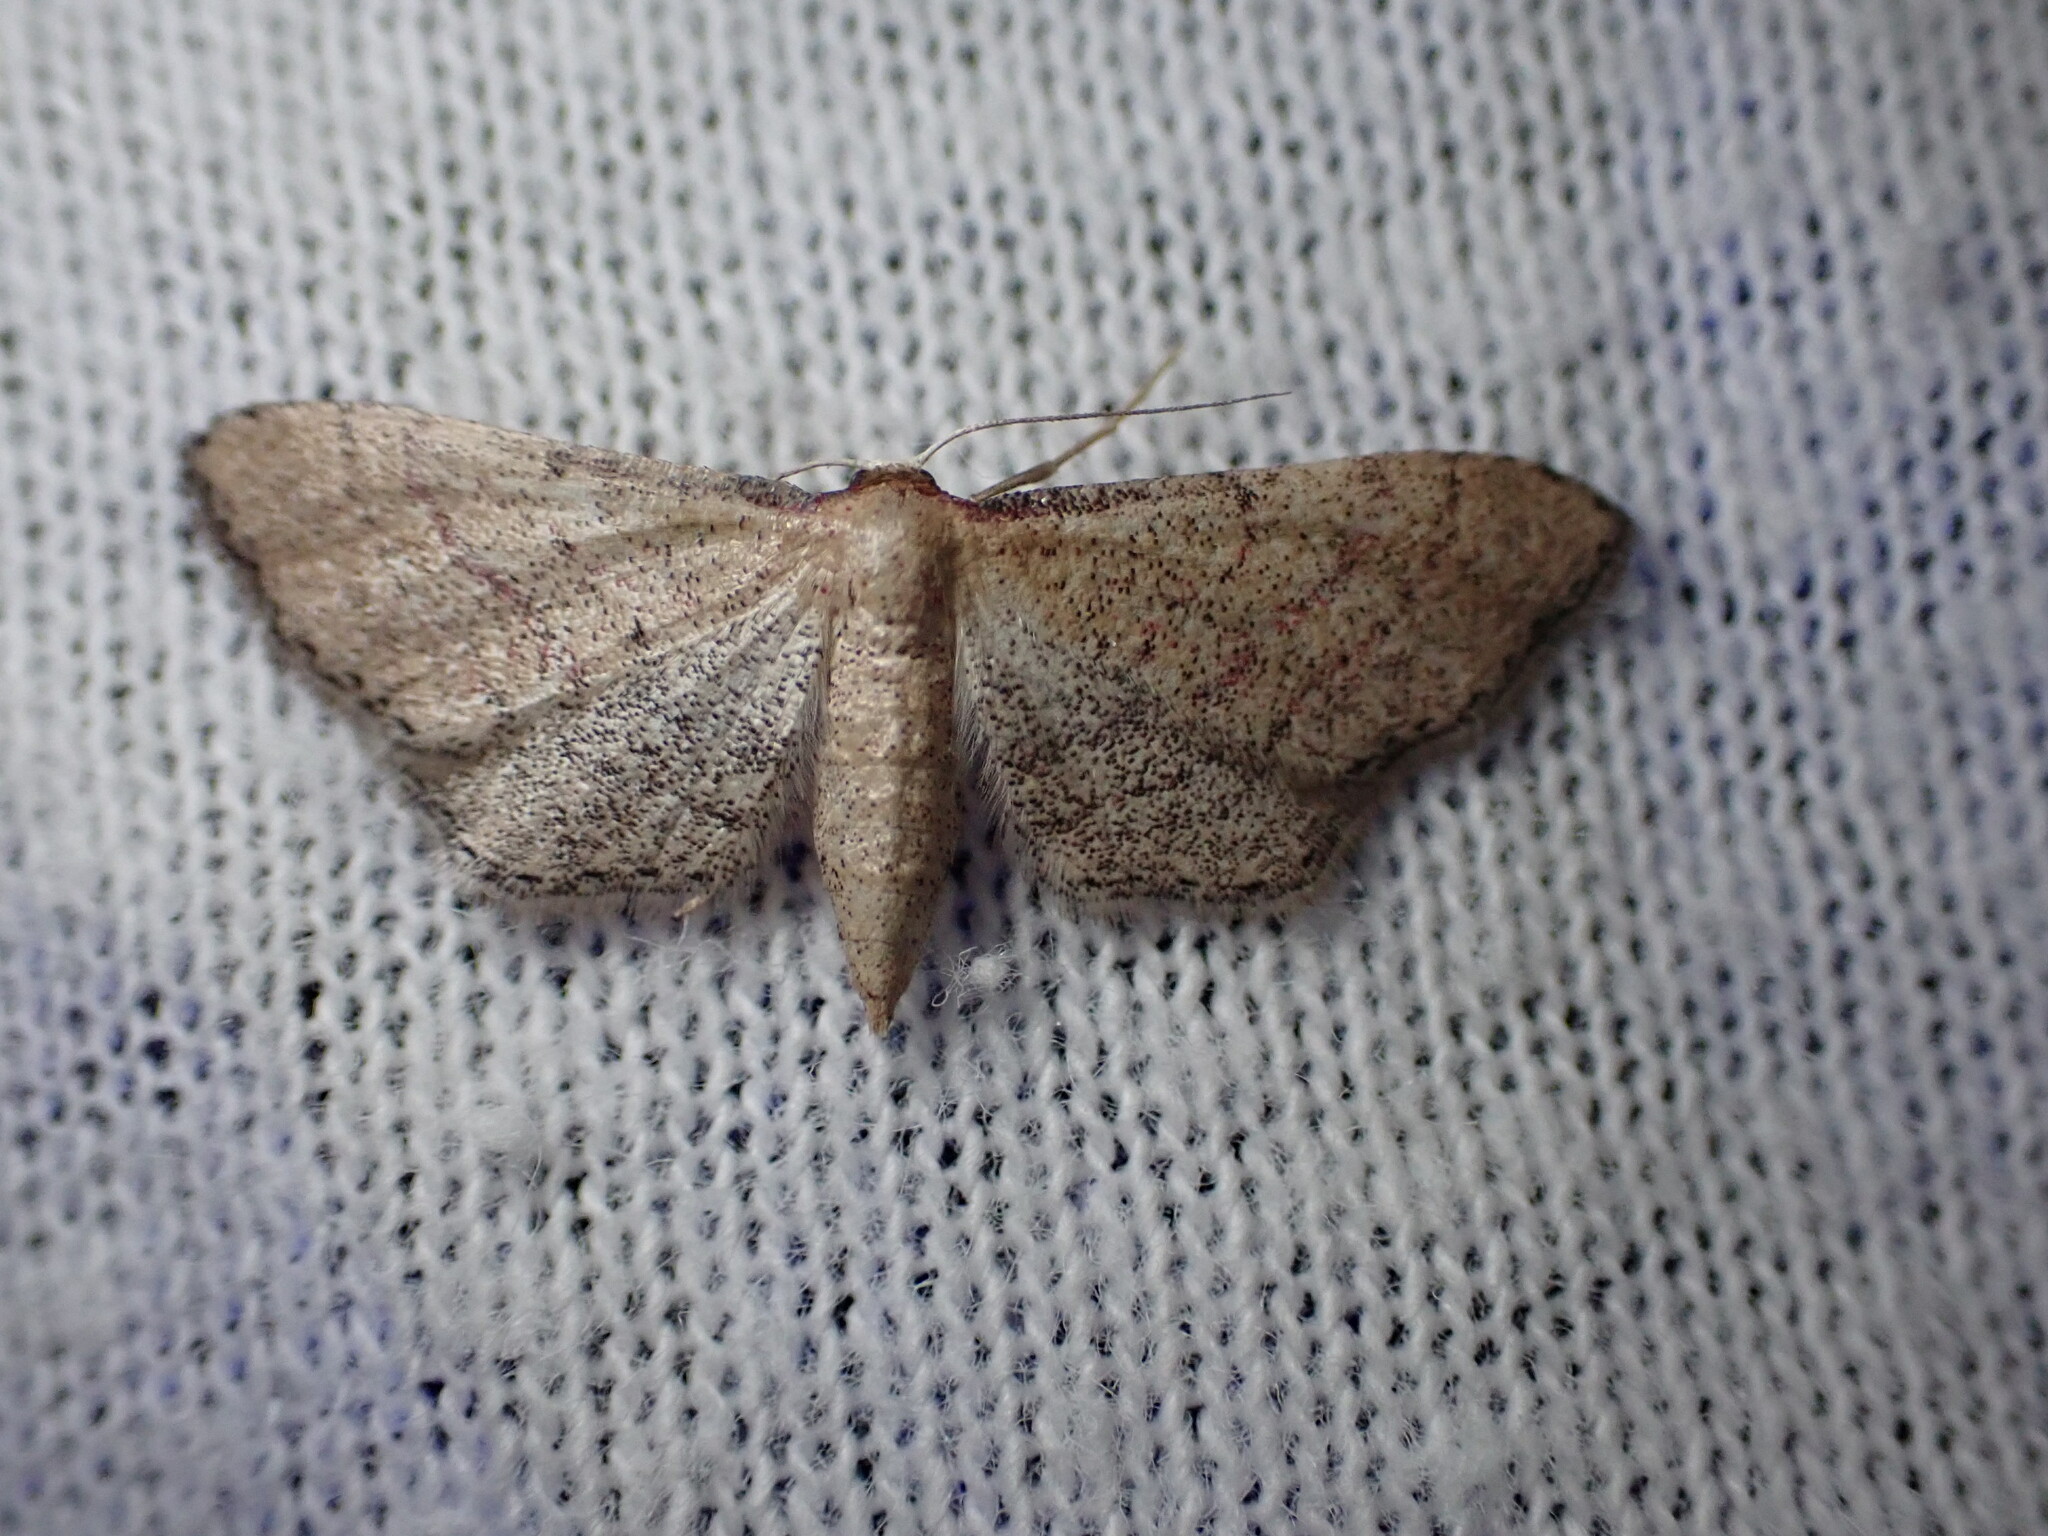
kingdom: Animalia
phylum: Arthropoda
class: Insecta
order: Lepidoptera
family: Geometridae
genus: Idaea
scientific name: Idaea infirmaria
